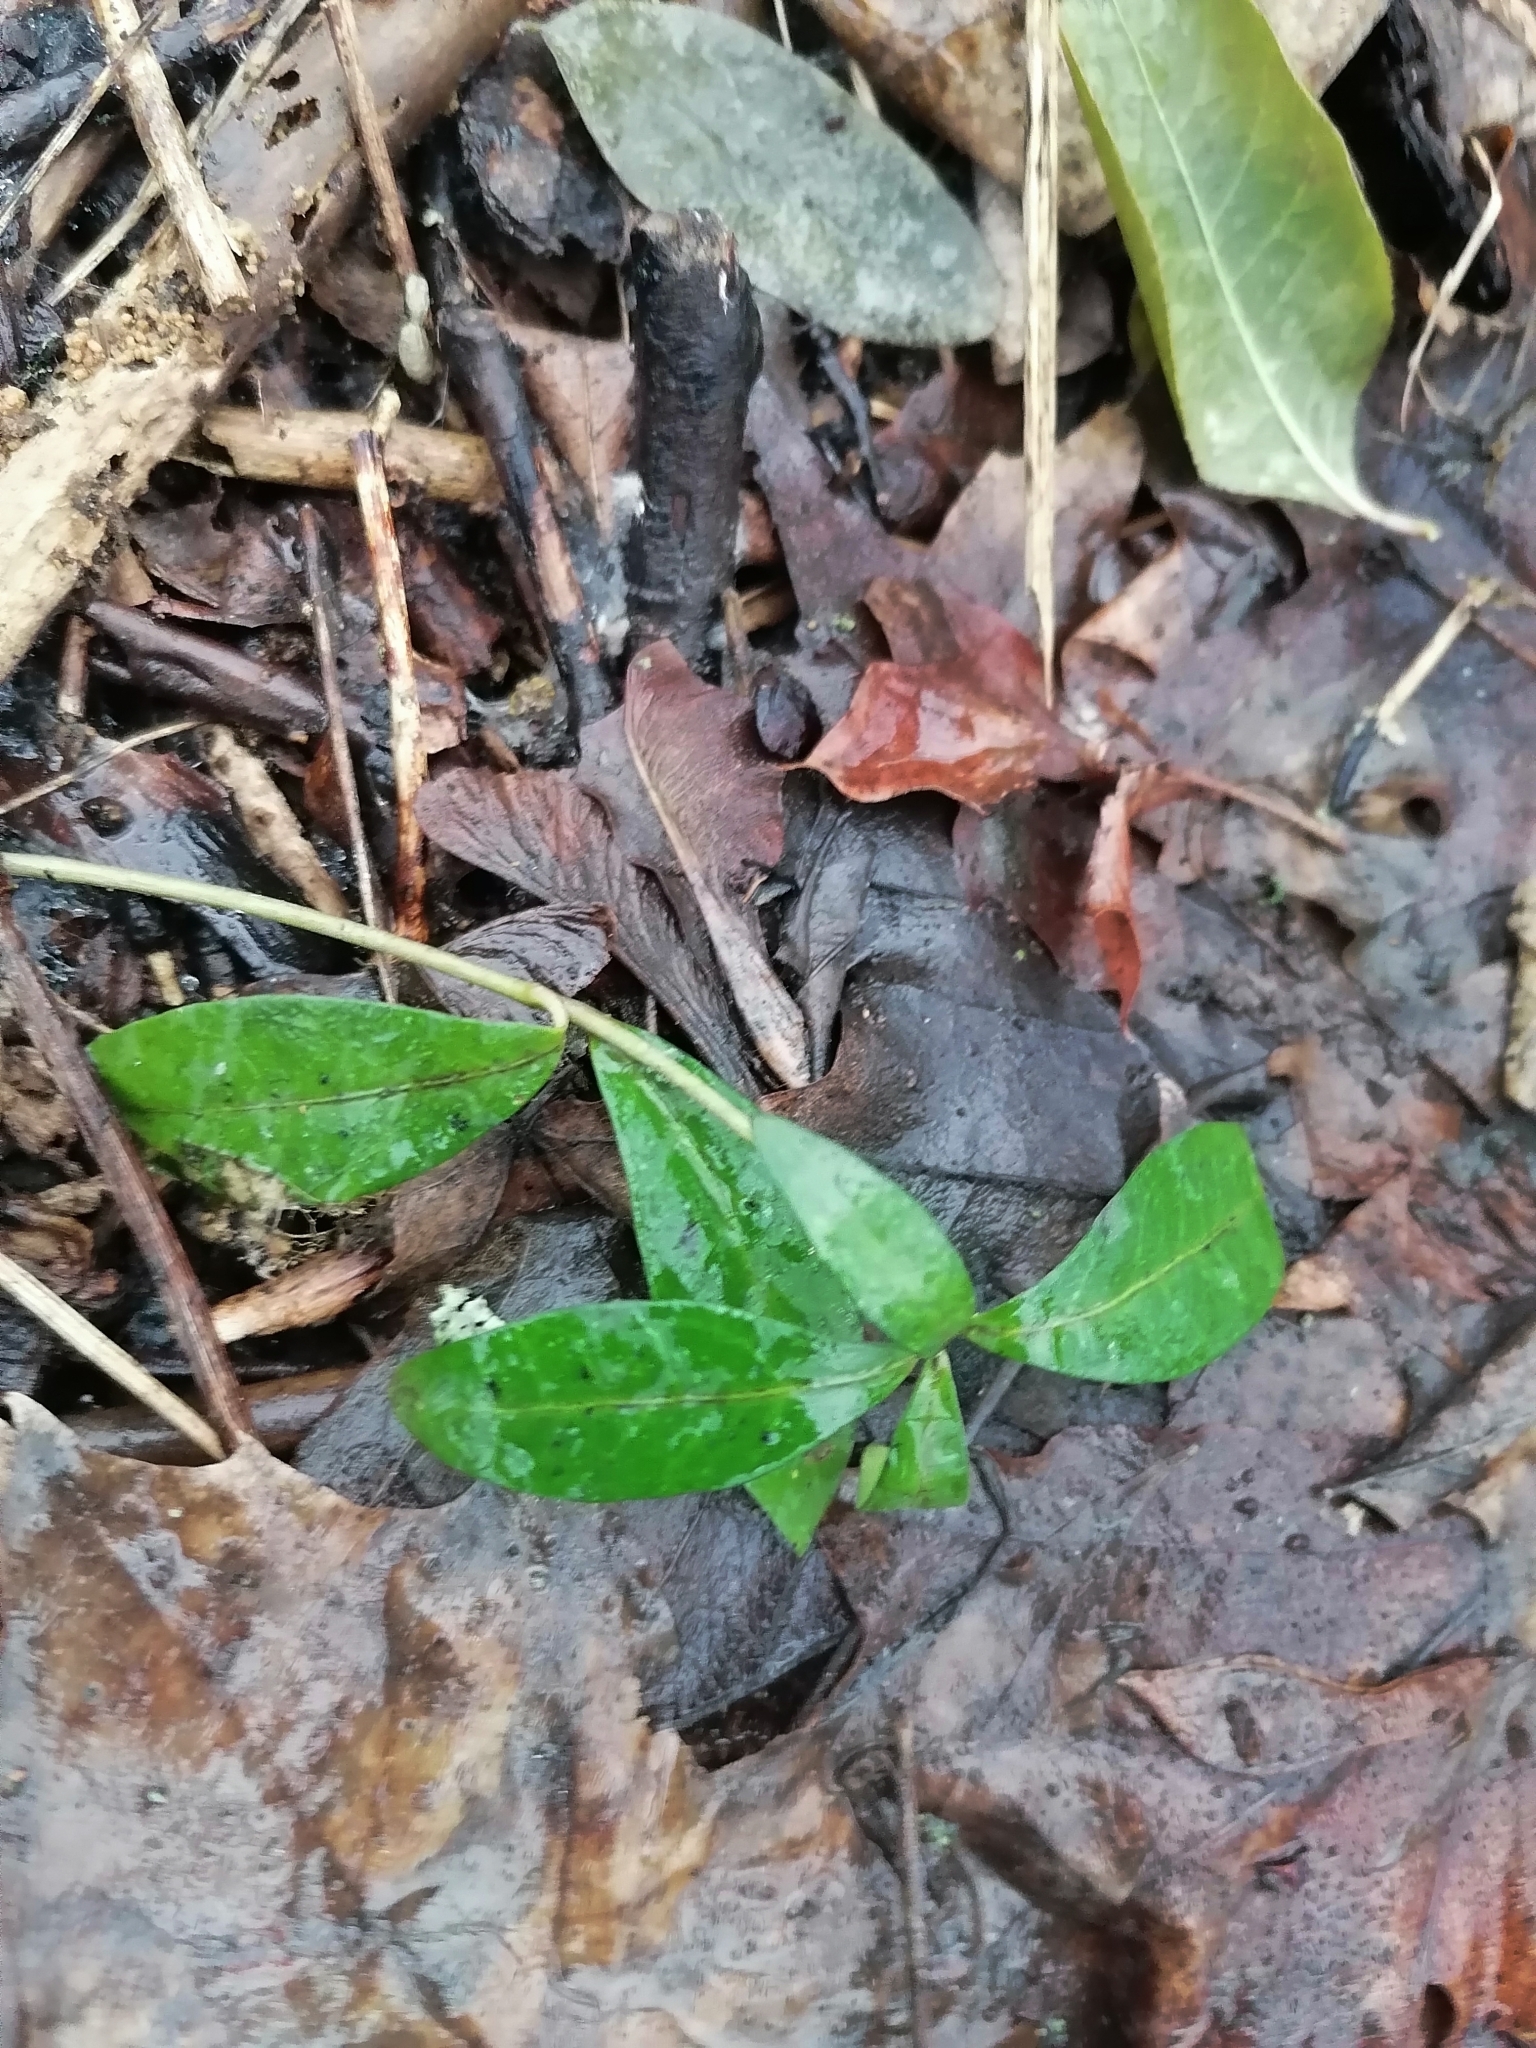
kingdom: Plantae
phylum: Tracheophyta
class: Magnoliopsida
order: Gentianales
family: Apocynaceae
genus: Vinca
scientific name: Vinca minor
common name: Lesser periwinkle
